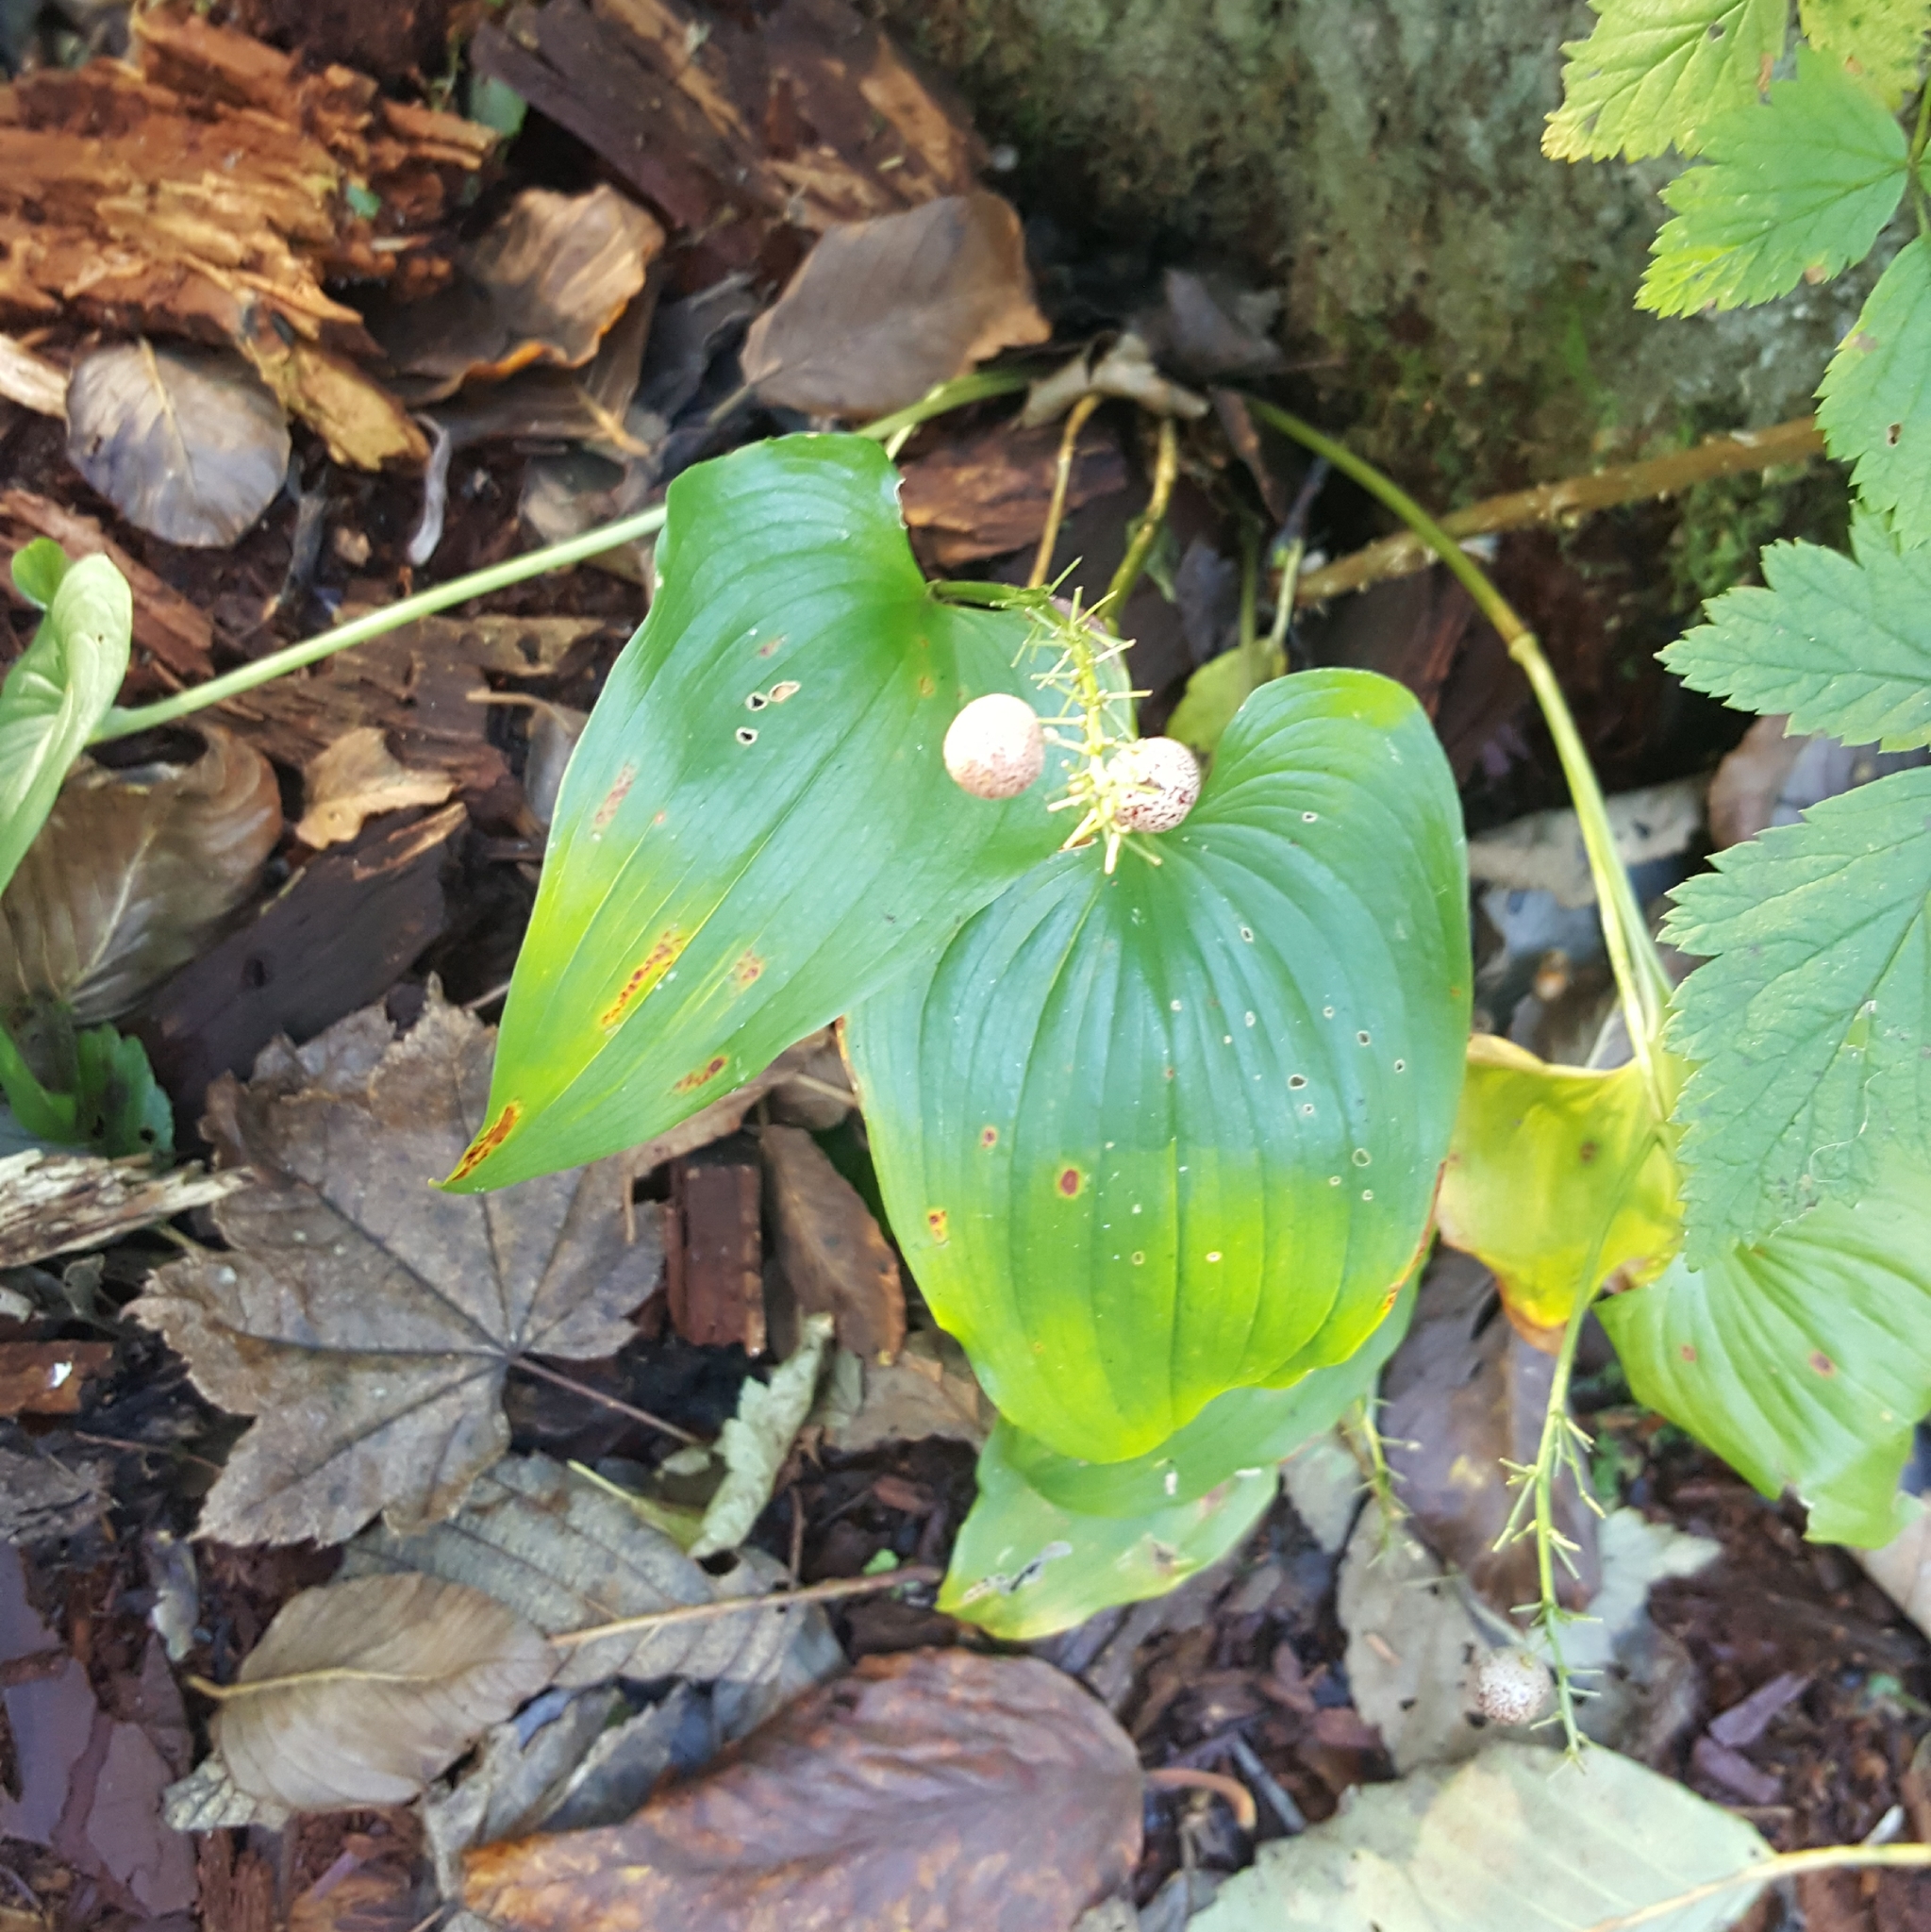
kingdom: Plantae
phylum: Tracheophyta
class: Liliopsida
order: Asparagales
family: Asparagaceae
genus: Maianthemum
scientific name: Maianthemum dilatatum
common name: False lily-of-the-valley
